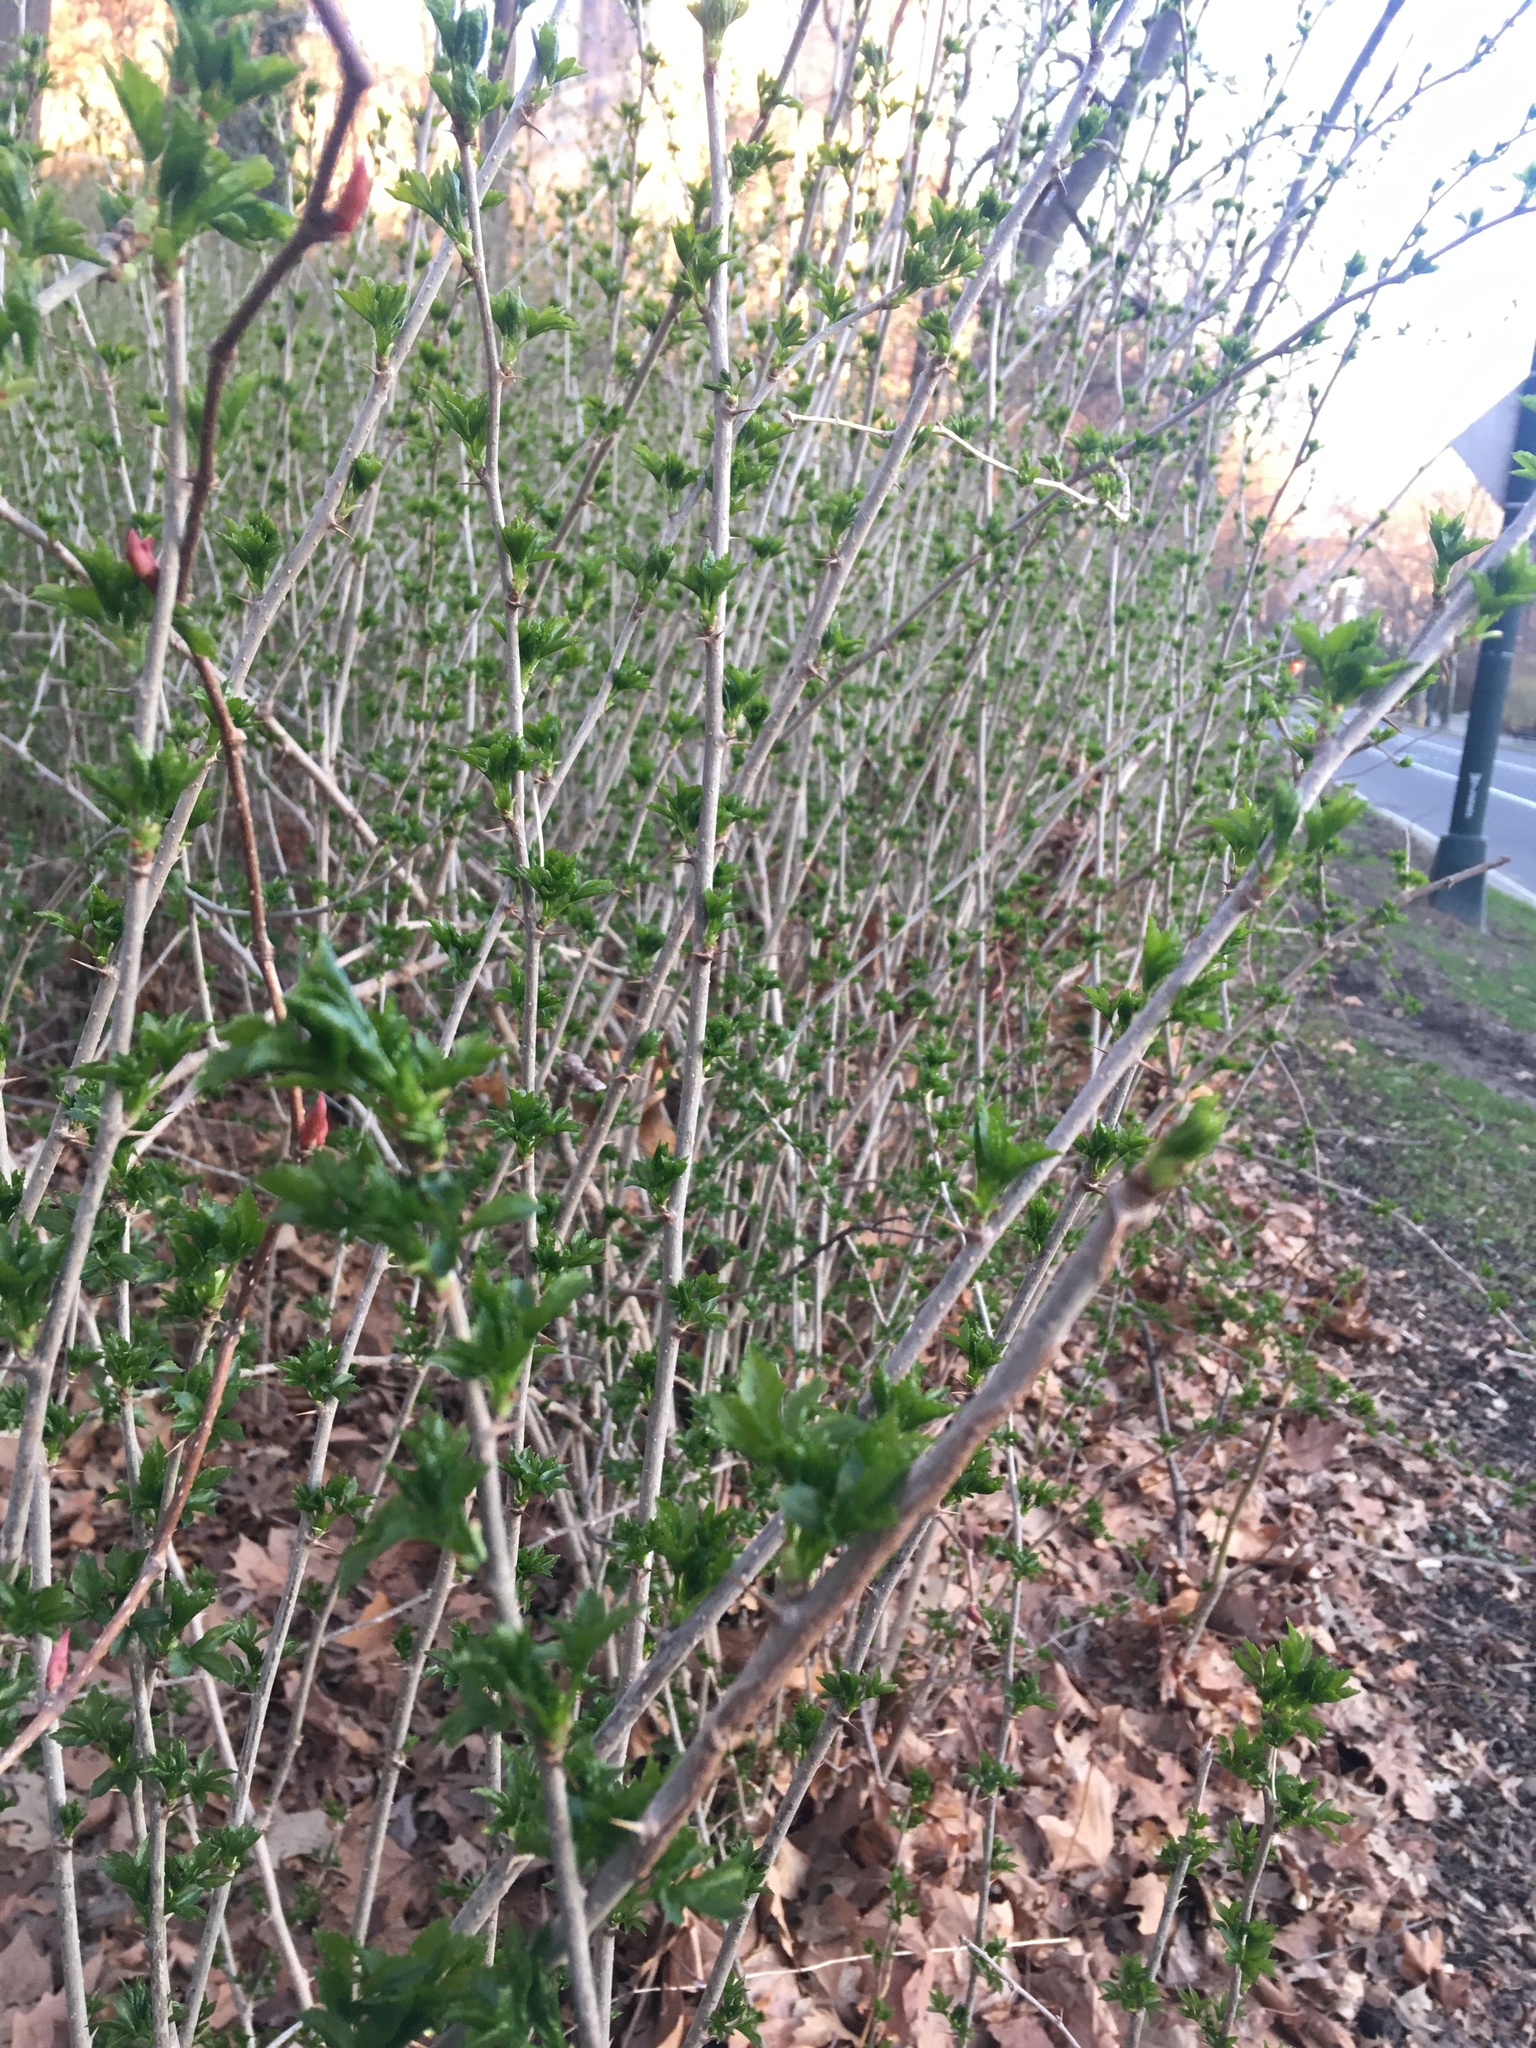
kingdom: Plantae
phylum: Tracheophyta
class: Magnoliopsida
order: Apiales
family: Araliaceae
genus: Eleutherococcus
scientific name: Eleutherococcus sieboldianus
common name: Ginseng
